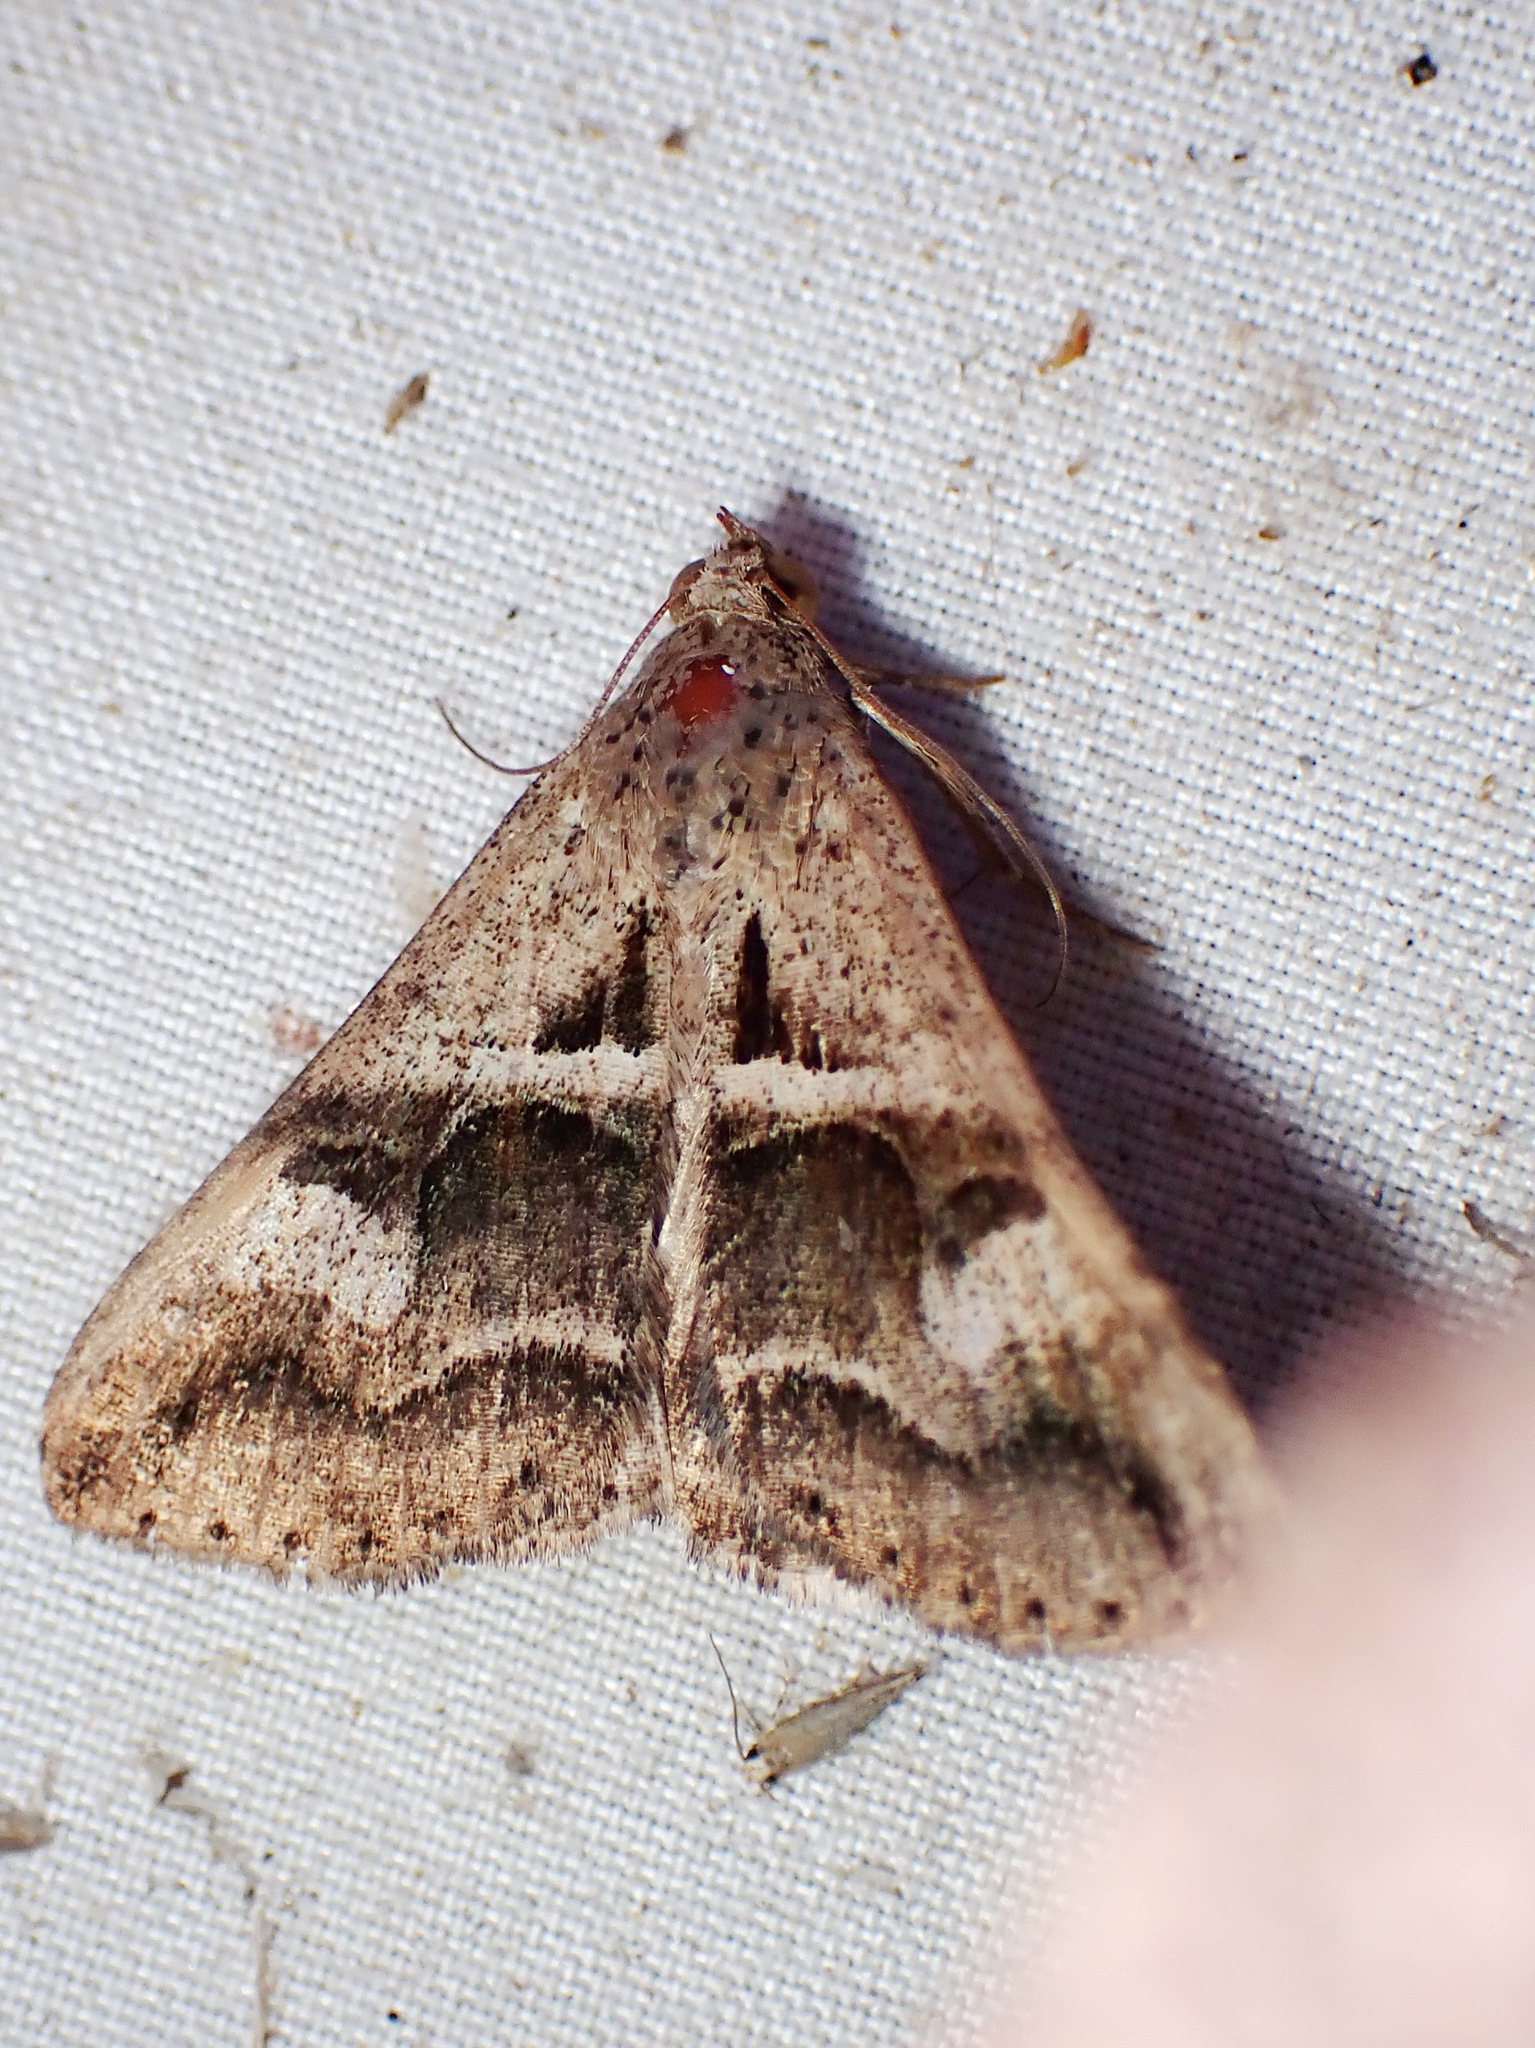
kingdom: Animalia
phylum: Arthropoda
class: Insecta
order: Lepidoptera
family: Erebidae
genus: Melipotis
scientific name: Melipotis cellaris
